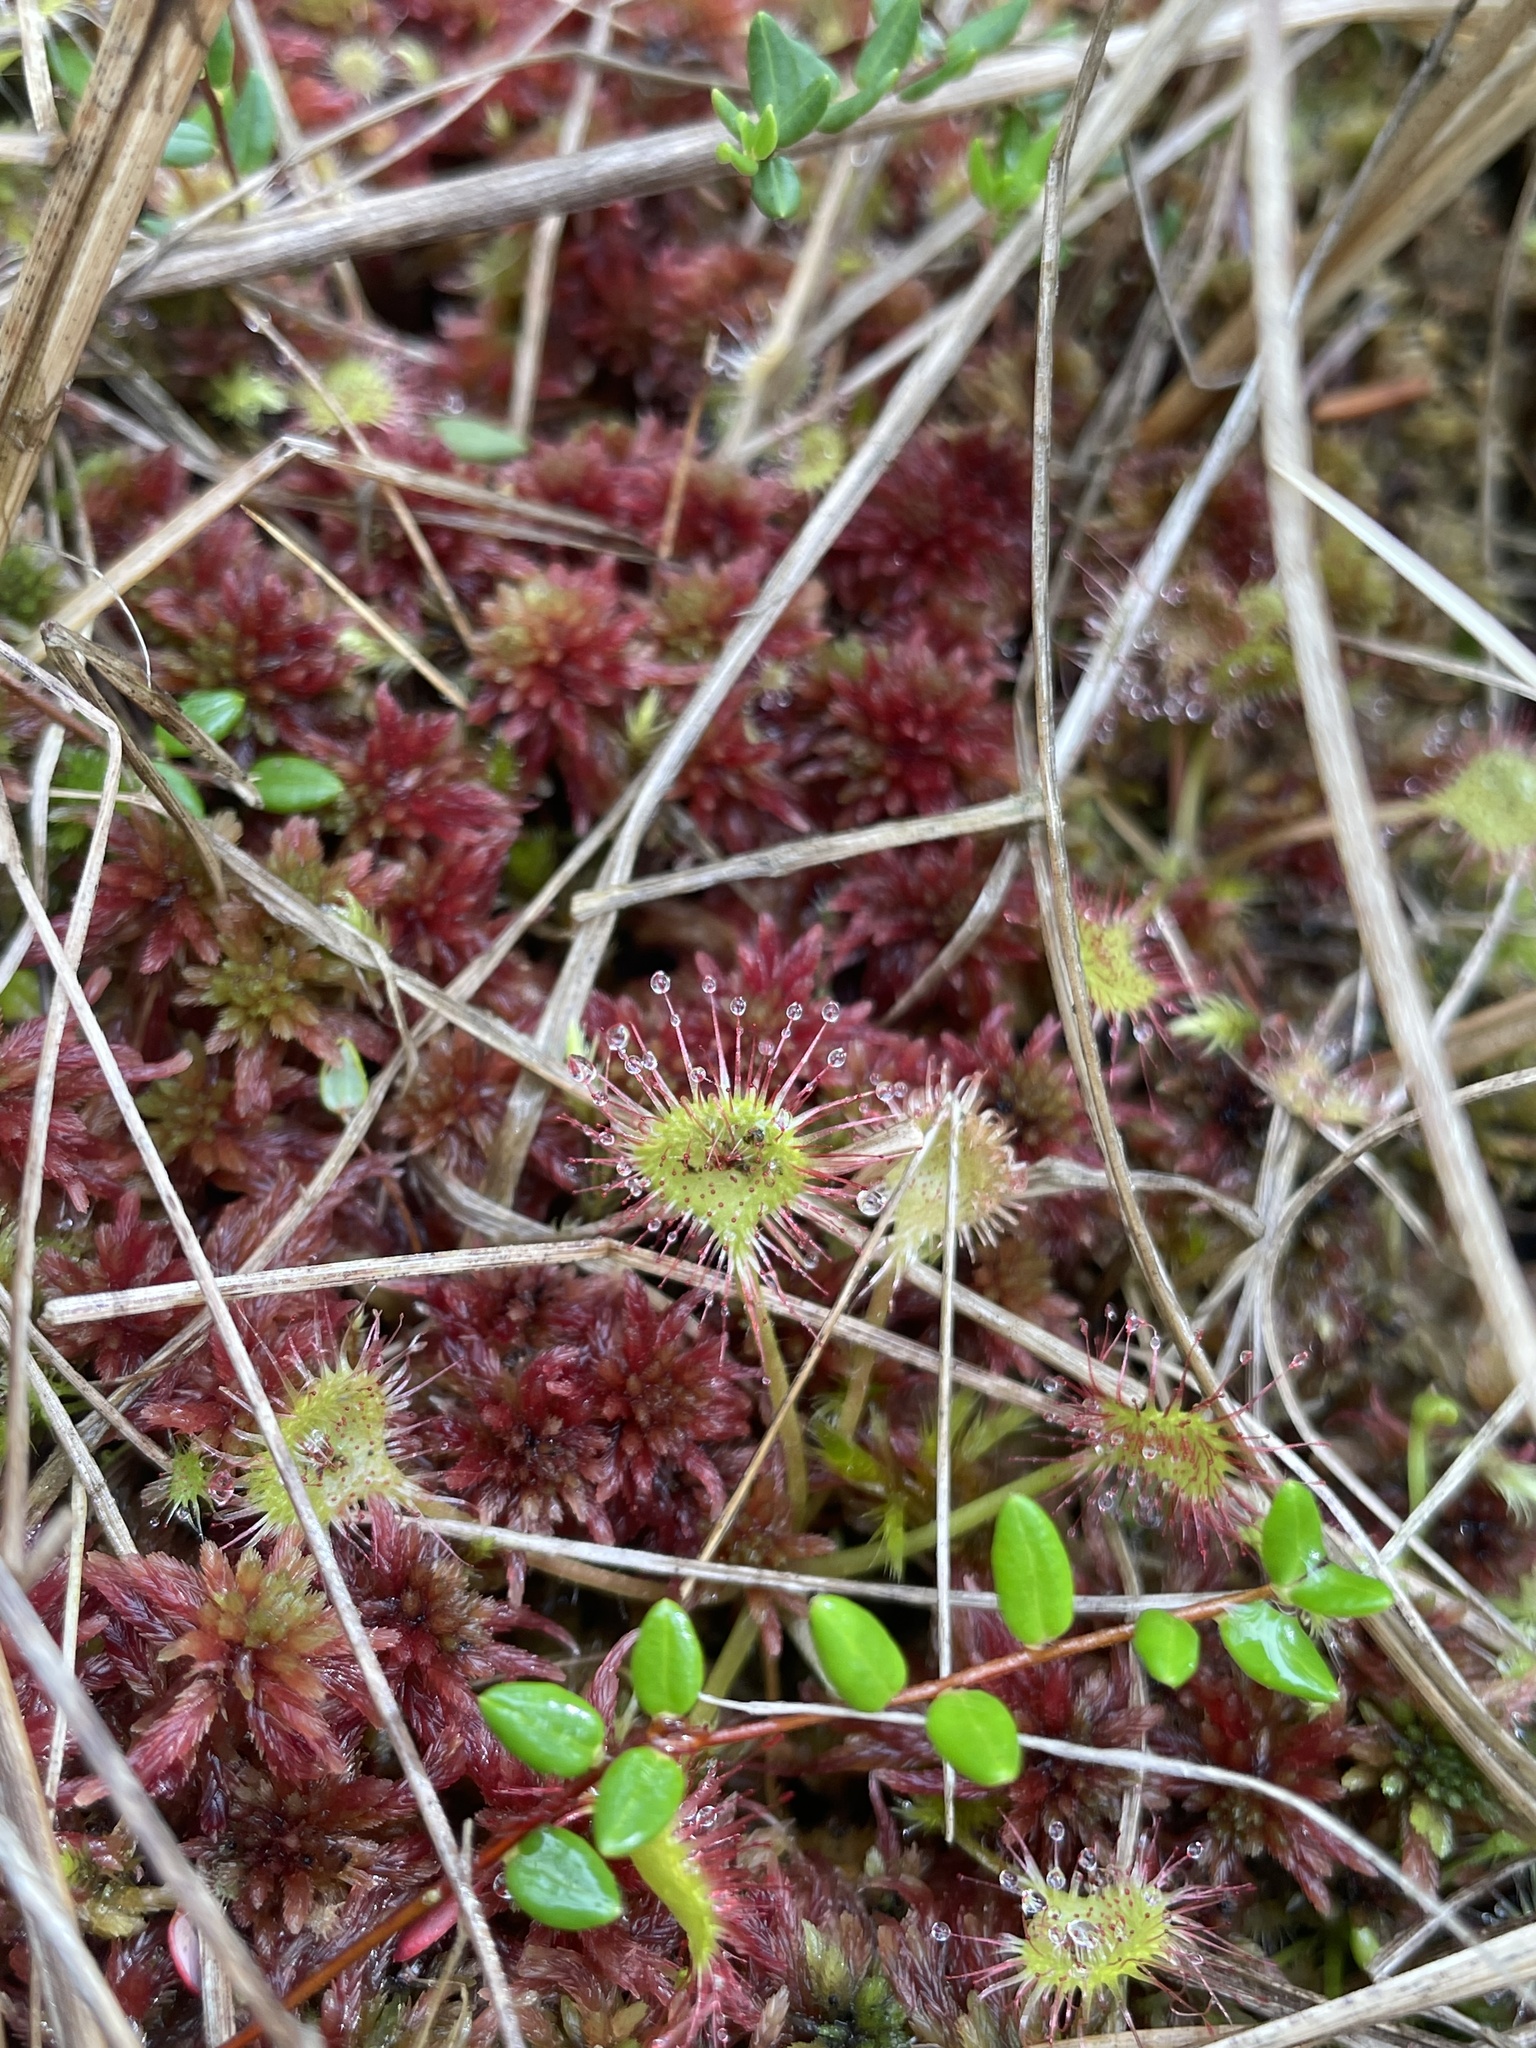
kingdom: Plantae
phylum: Tracheophyta
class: Magnoliopsida
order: Caryophyllales
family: Droseraceae
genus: Drosera
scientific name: Drosera rotundifolia
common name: Round-leaved sundew
